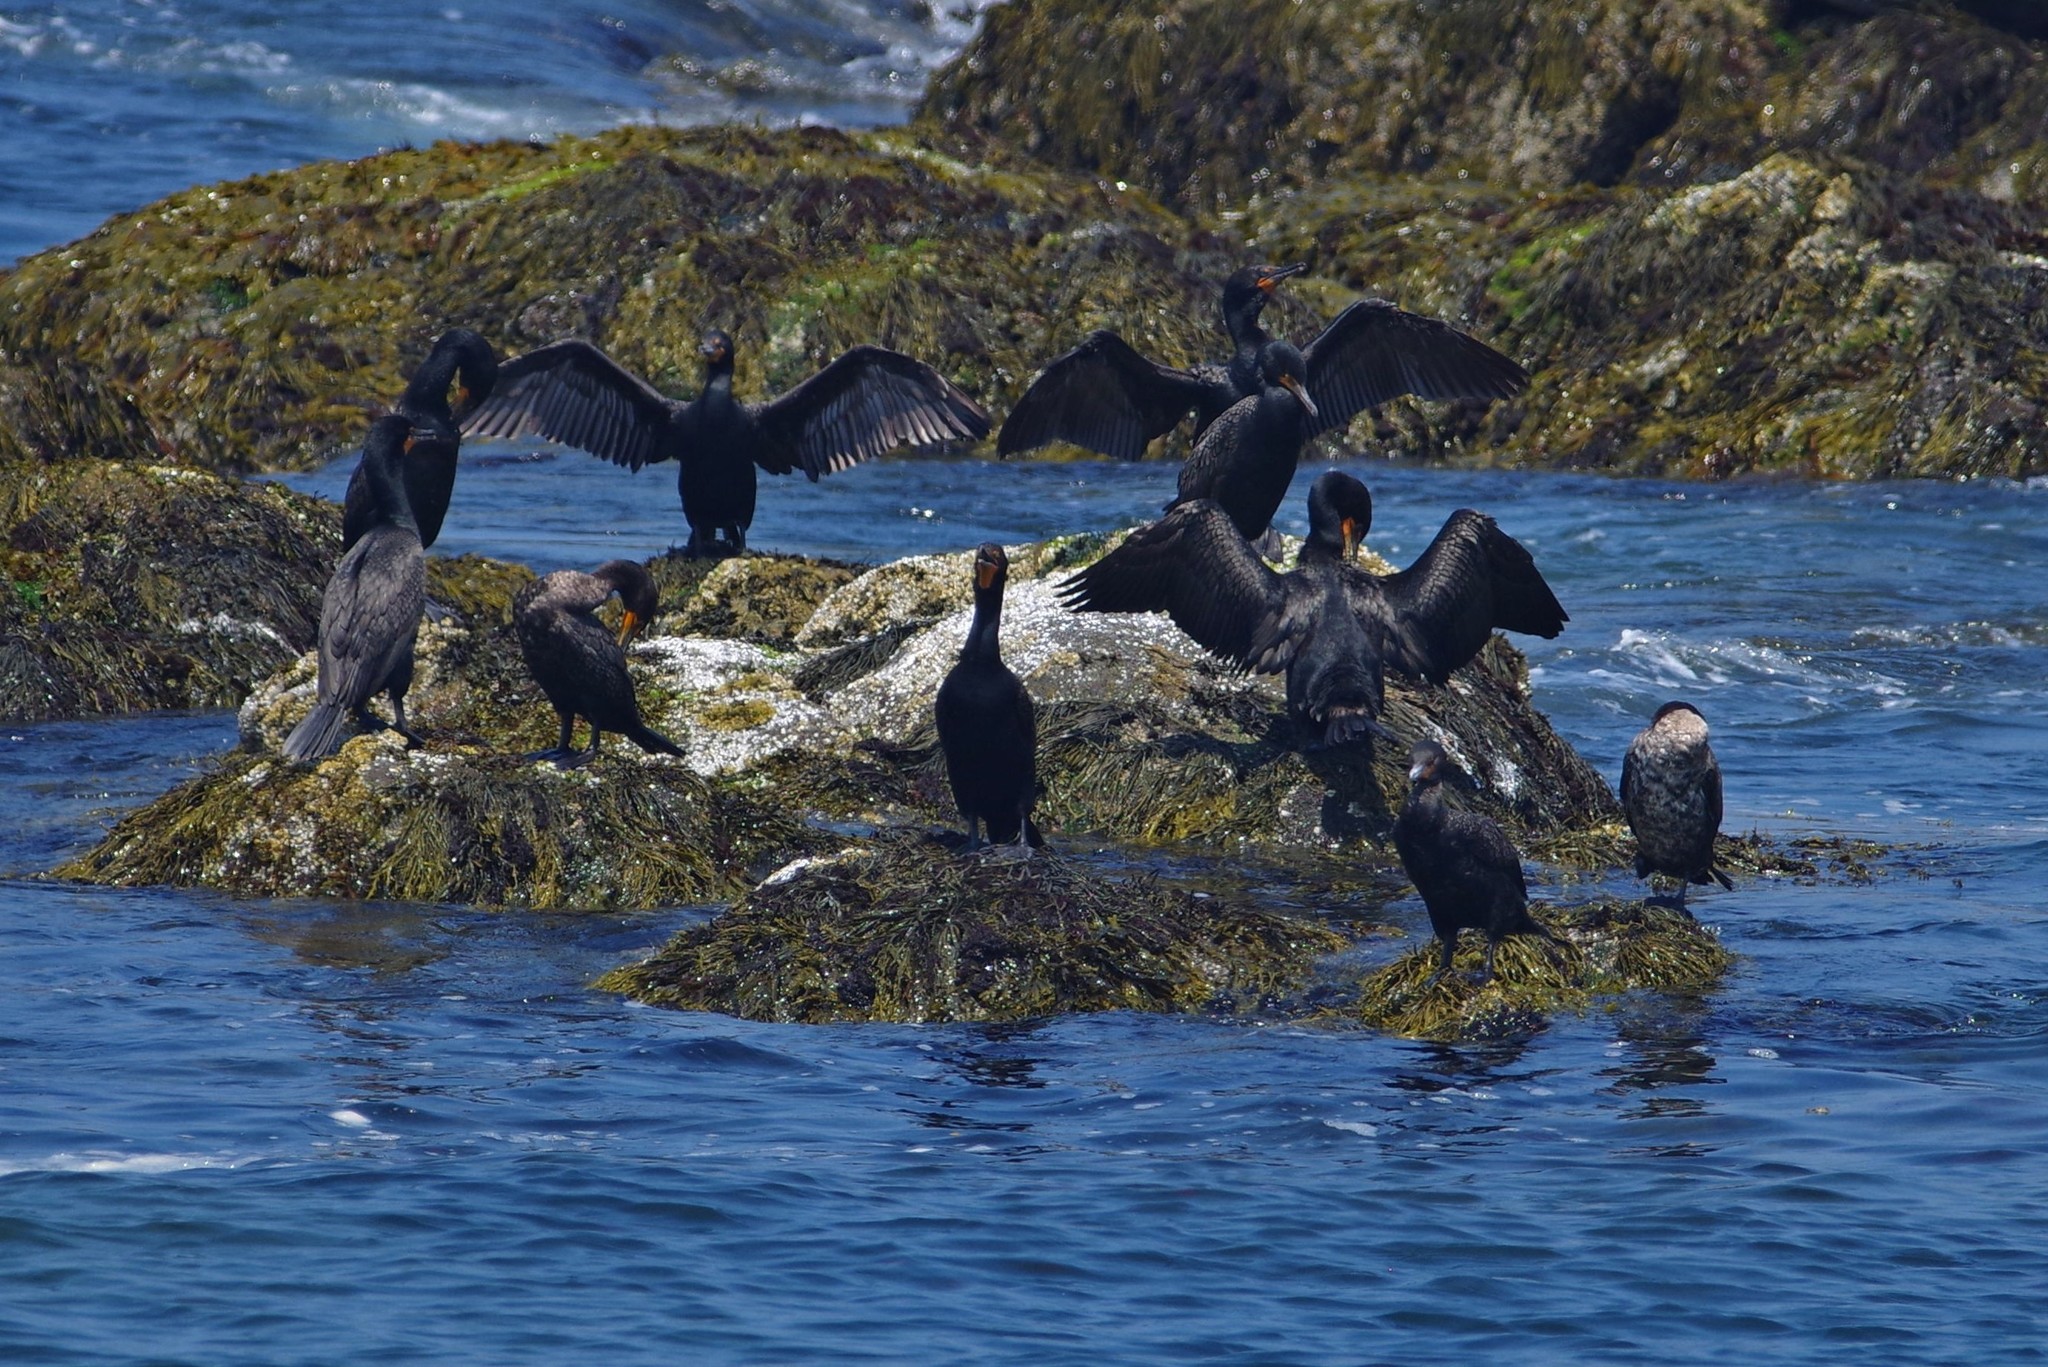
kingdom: Animalia
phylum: Chordata
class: Aves
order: Suliformes
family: Phalacrocoracidae
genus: Phalacrocorax
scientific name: Phalacrocorax auritus
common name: Double-crested cormorant
